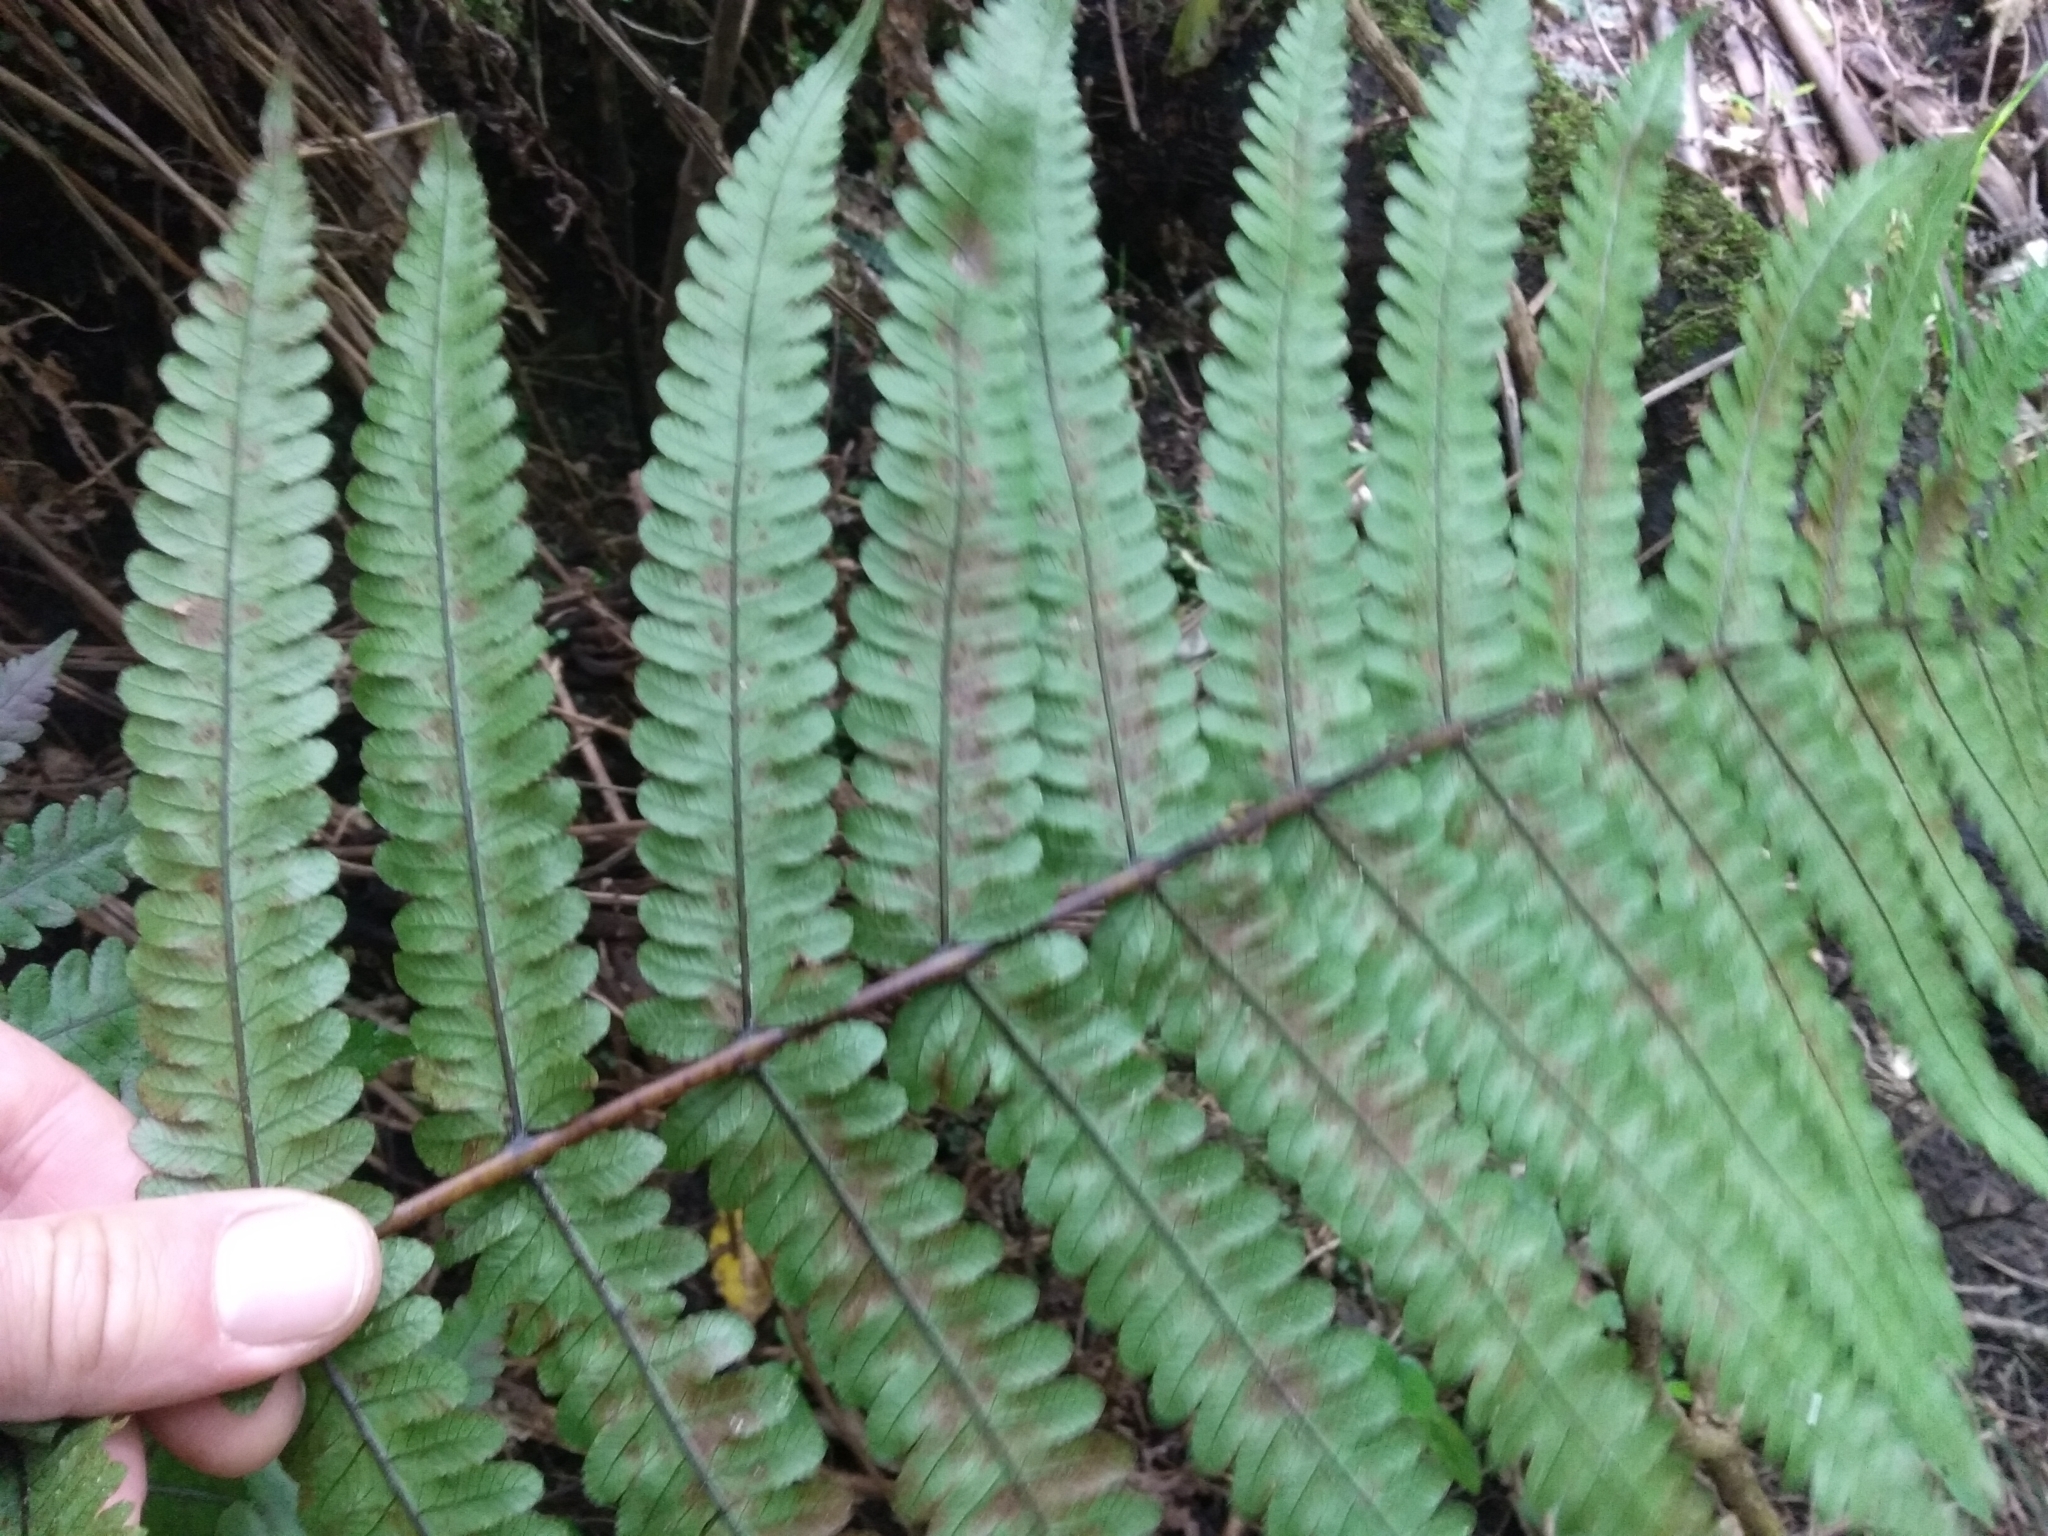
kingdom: Plantae
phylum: Tracheophyta
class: Polypodiopsida
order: Polypodiales
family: Thelypteridaceae
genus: Pakau
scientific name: Pakau pennigera
